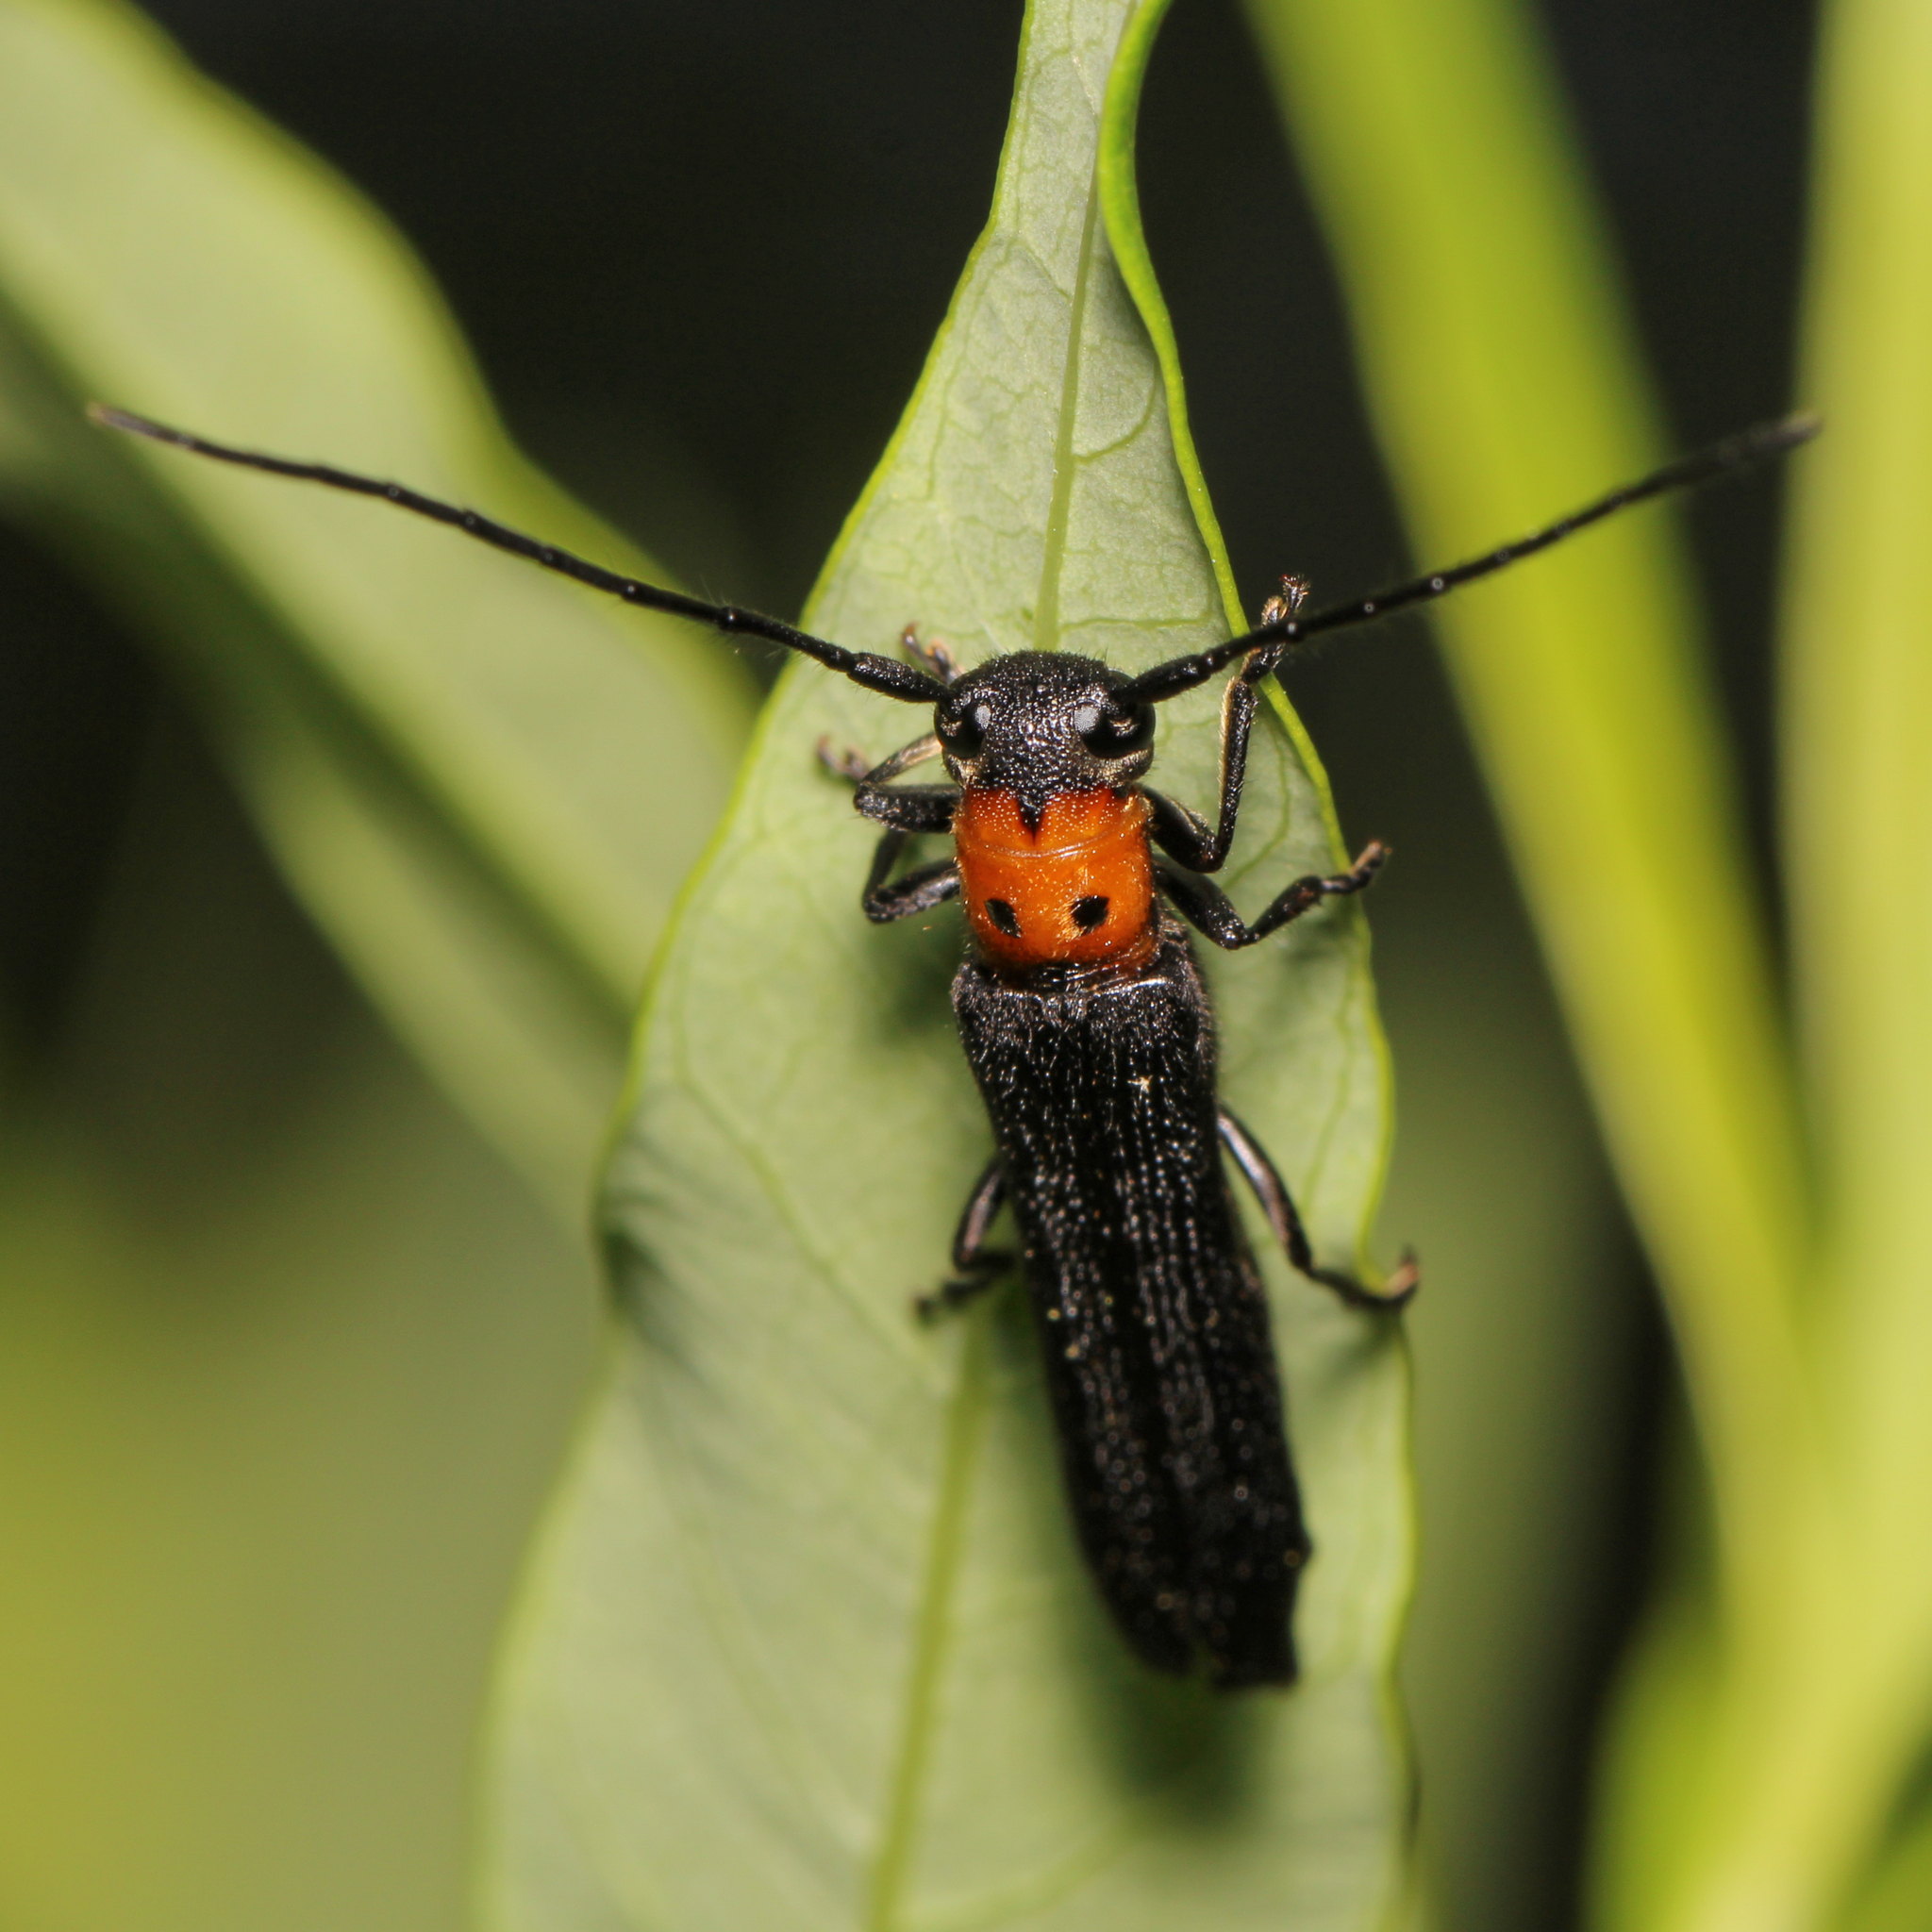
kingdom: Animalia
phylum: Arthropoda
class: Insecta
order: Coleoptera
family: Cerambycidae
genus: Oberea
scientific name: Oberea perspicillata
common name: Raspberry cane borer
